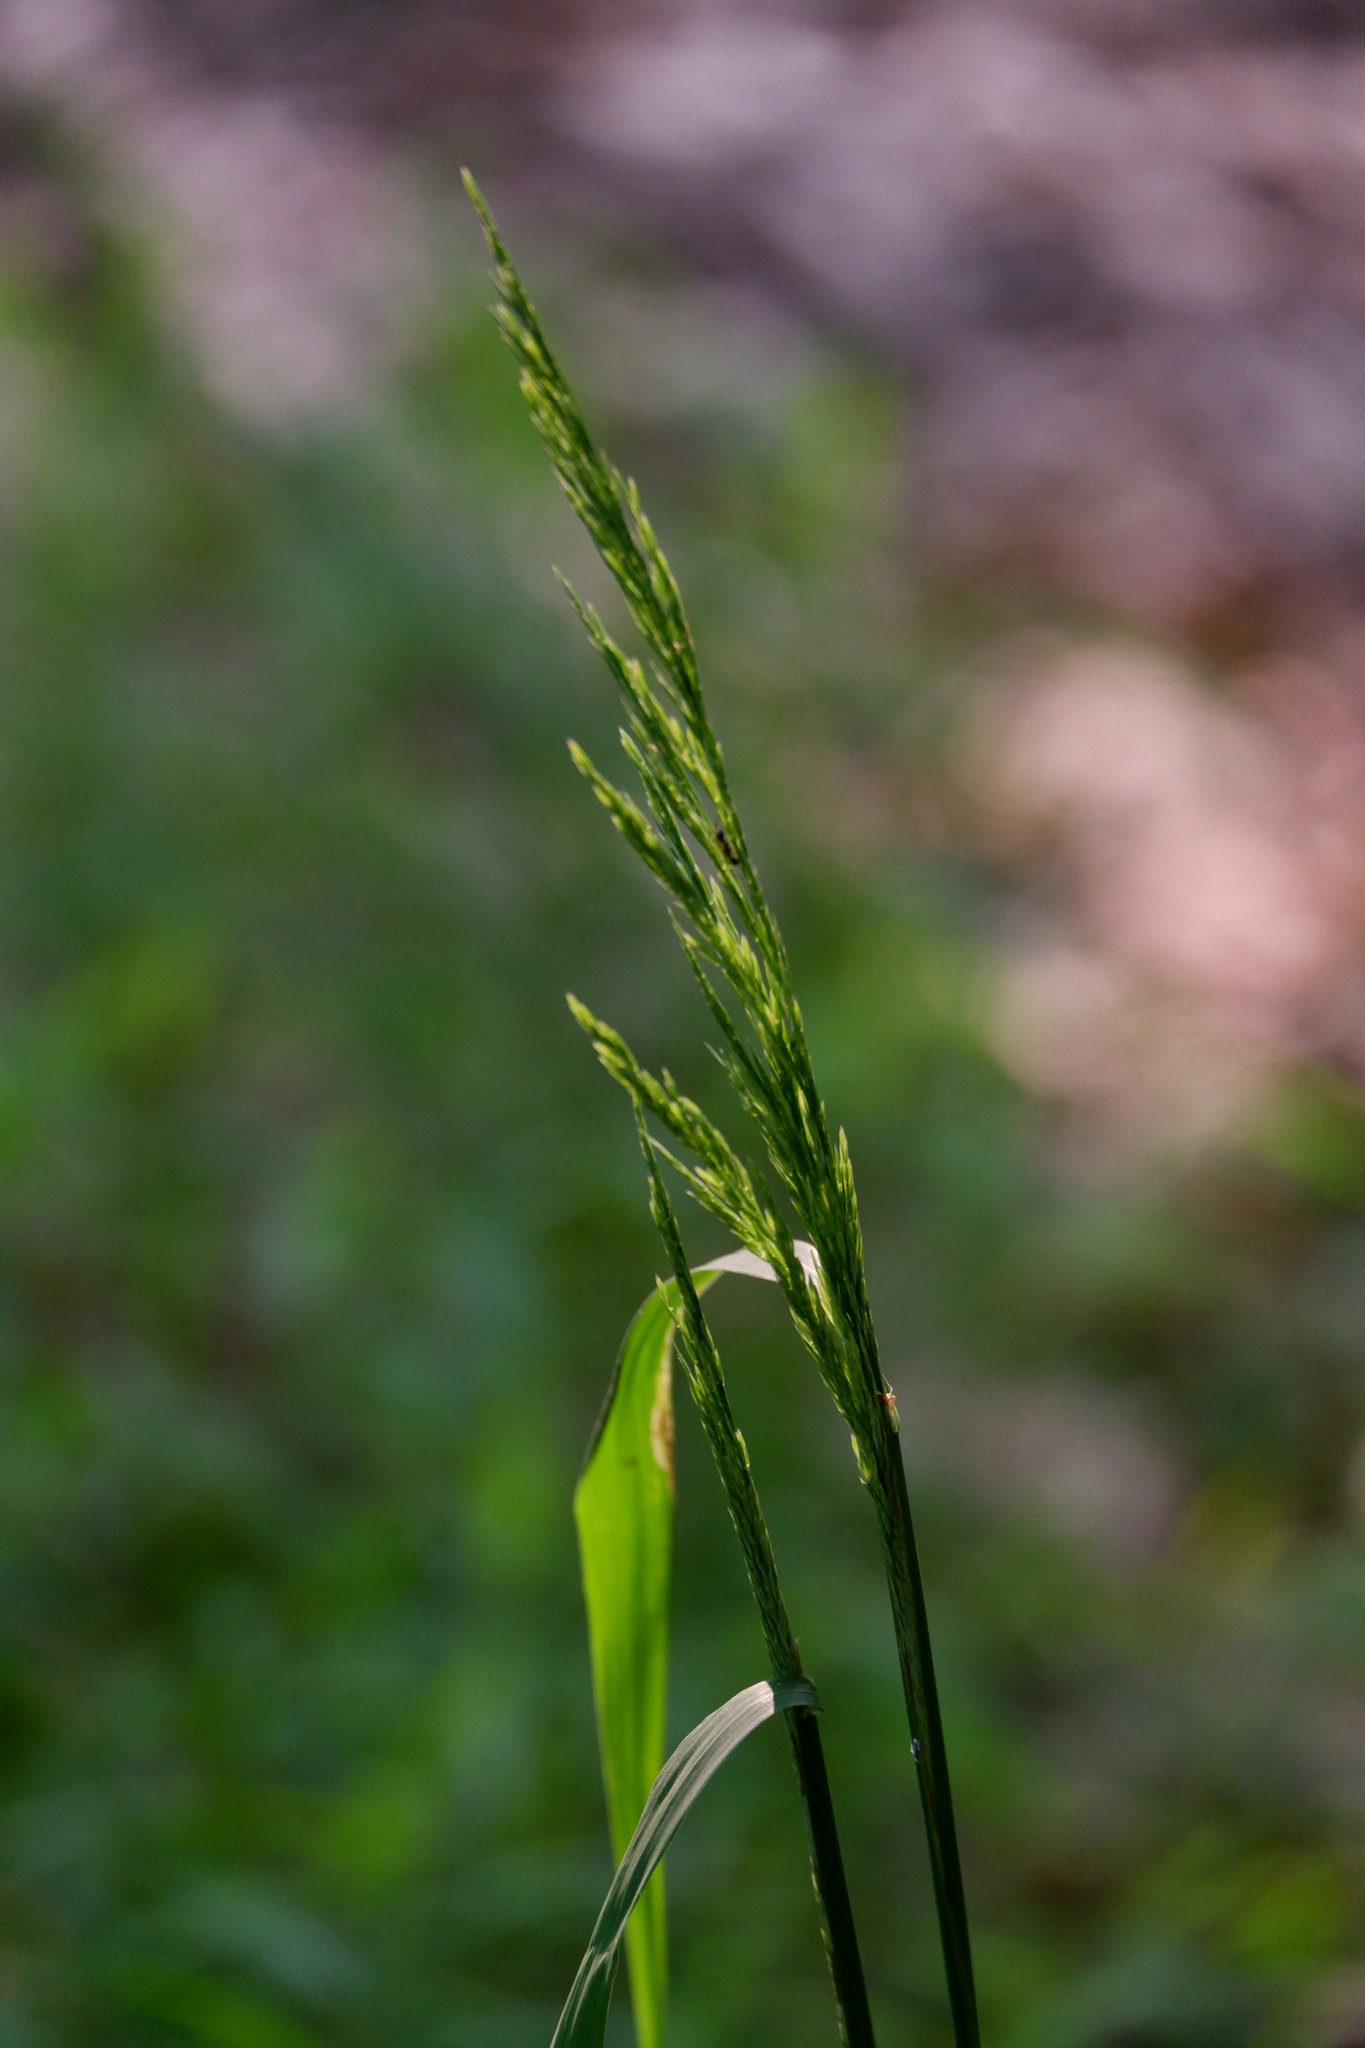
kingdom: Plantae
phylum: Tracheophyta
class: Liliopsida
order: Poales
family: Poaceae
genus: Cinna
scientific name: Cinna arundinacea
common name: Stout woodreed
